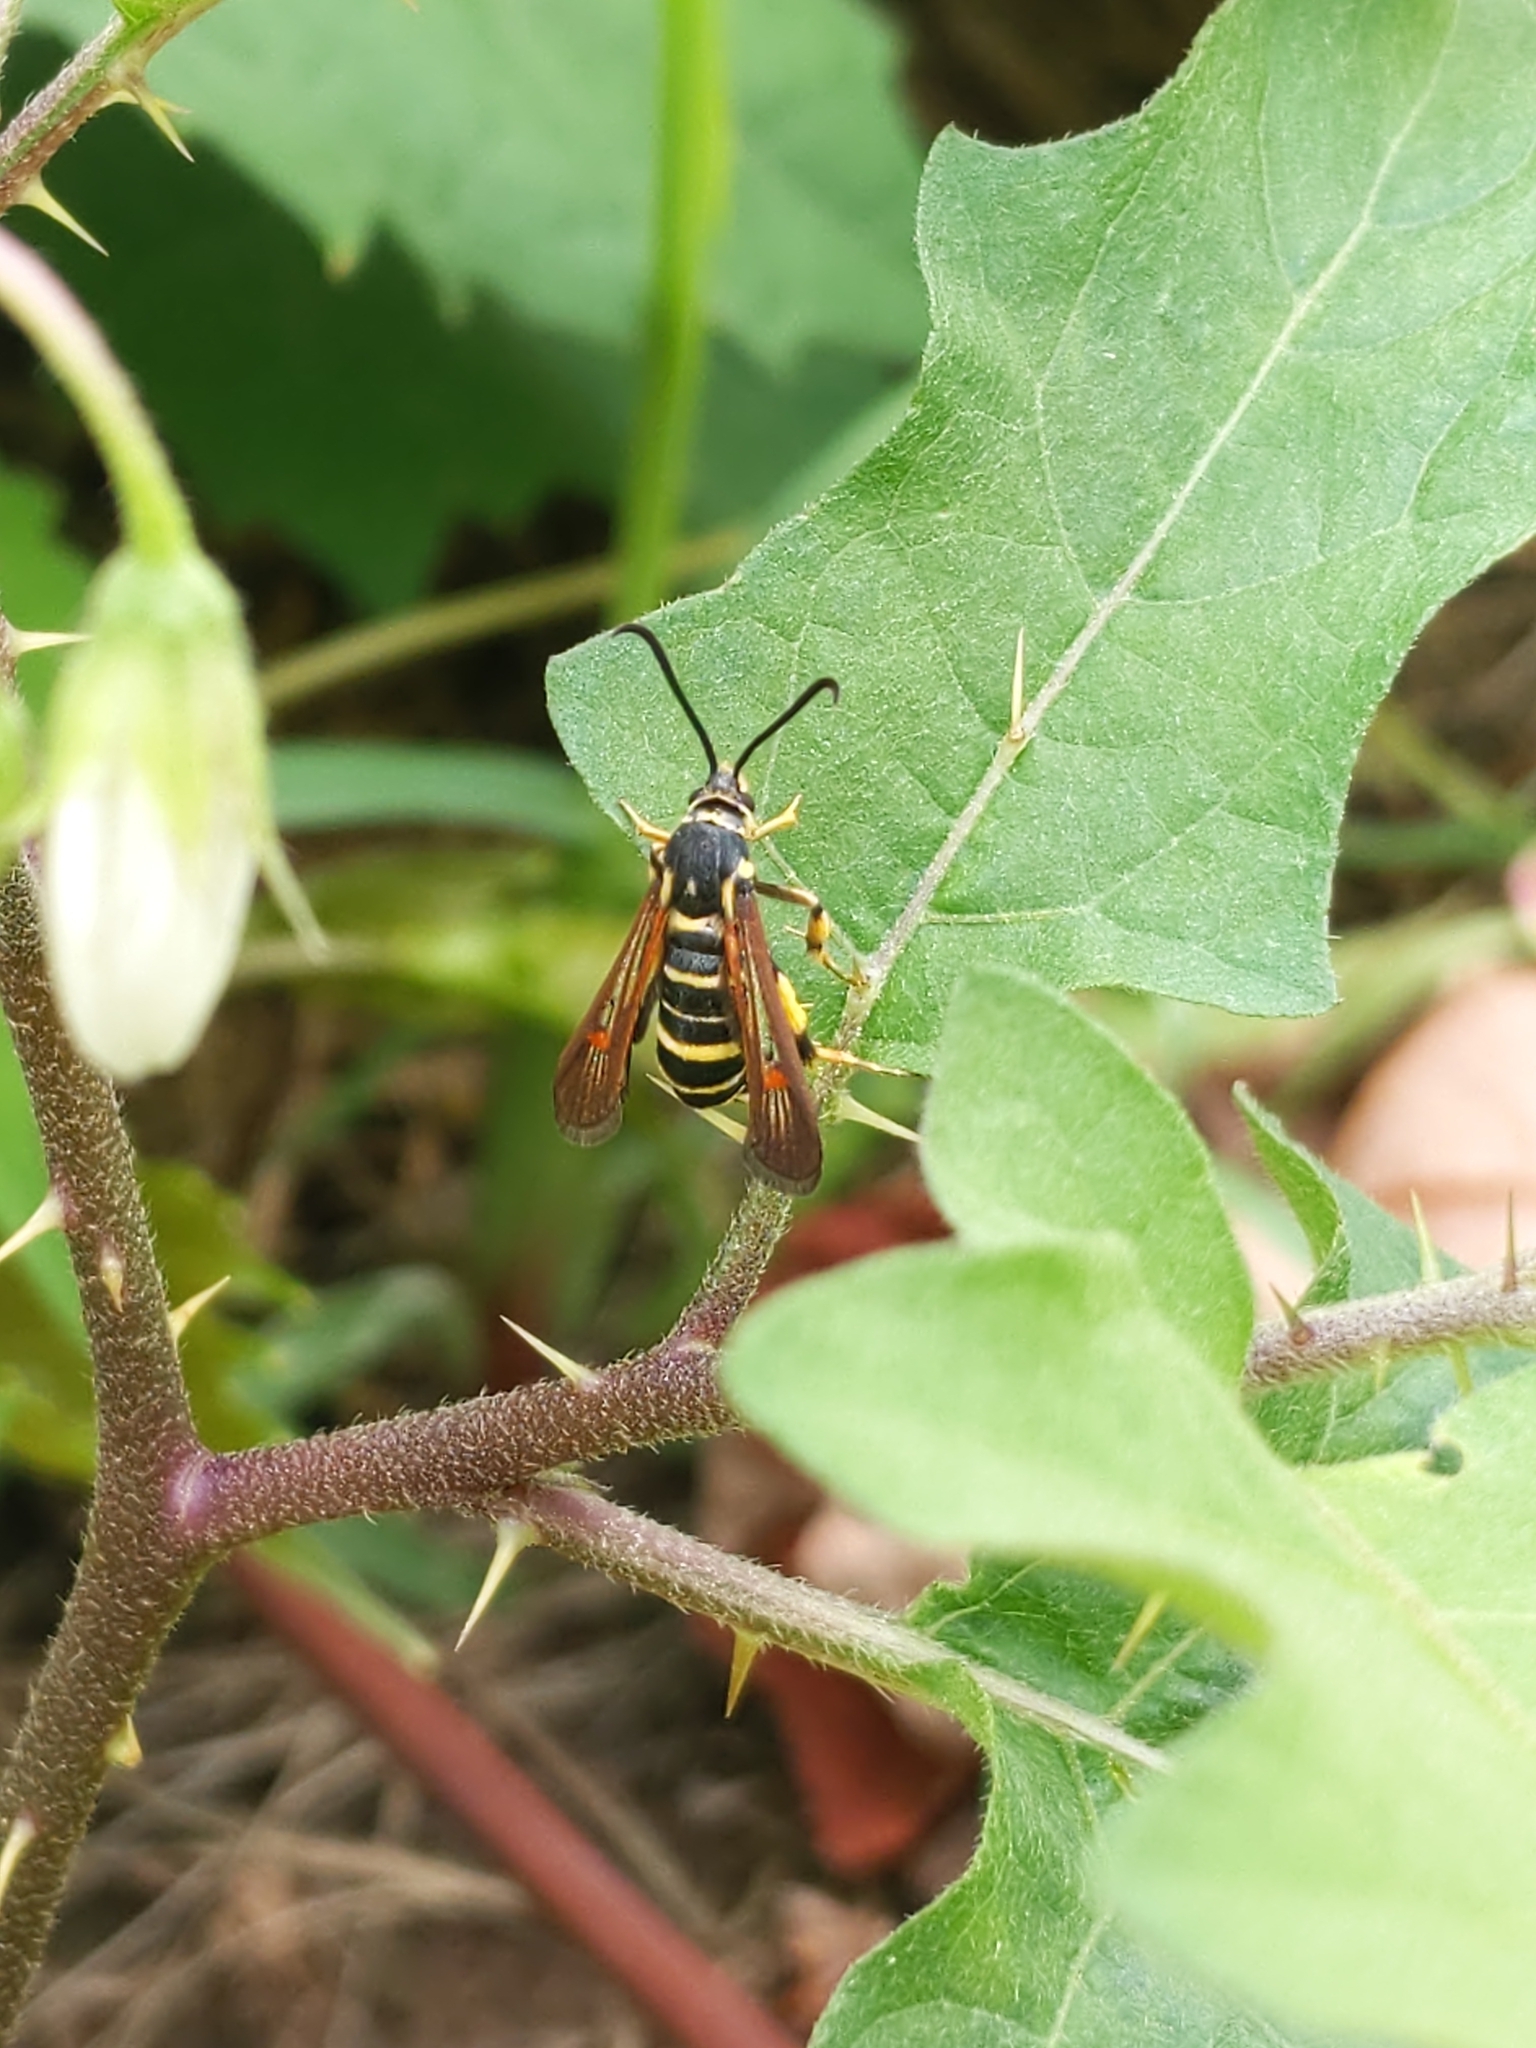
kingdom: Animalia
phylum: Arthropoda
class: Insecta
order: Lepidoptera
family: Sesiidae
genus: Synanthedon
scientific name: Synanthedon rileyana
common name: Riley's clearwing moth
